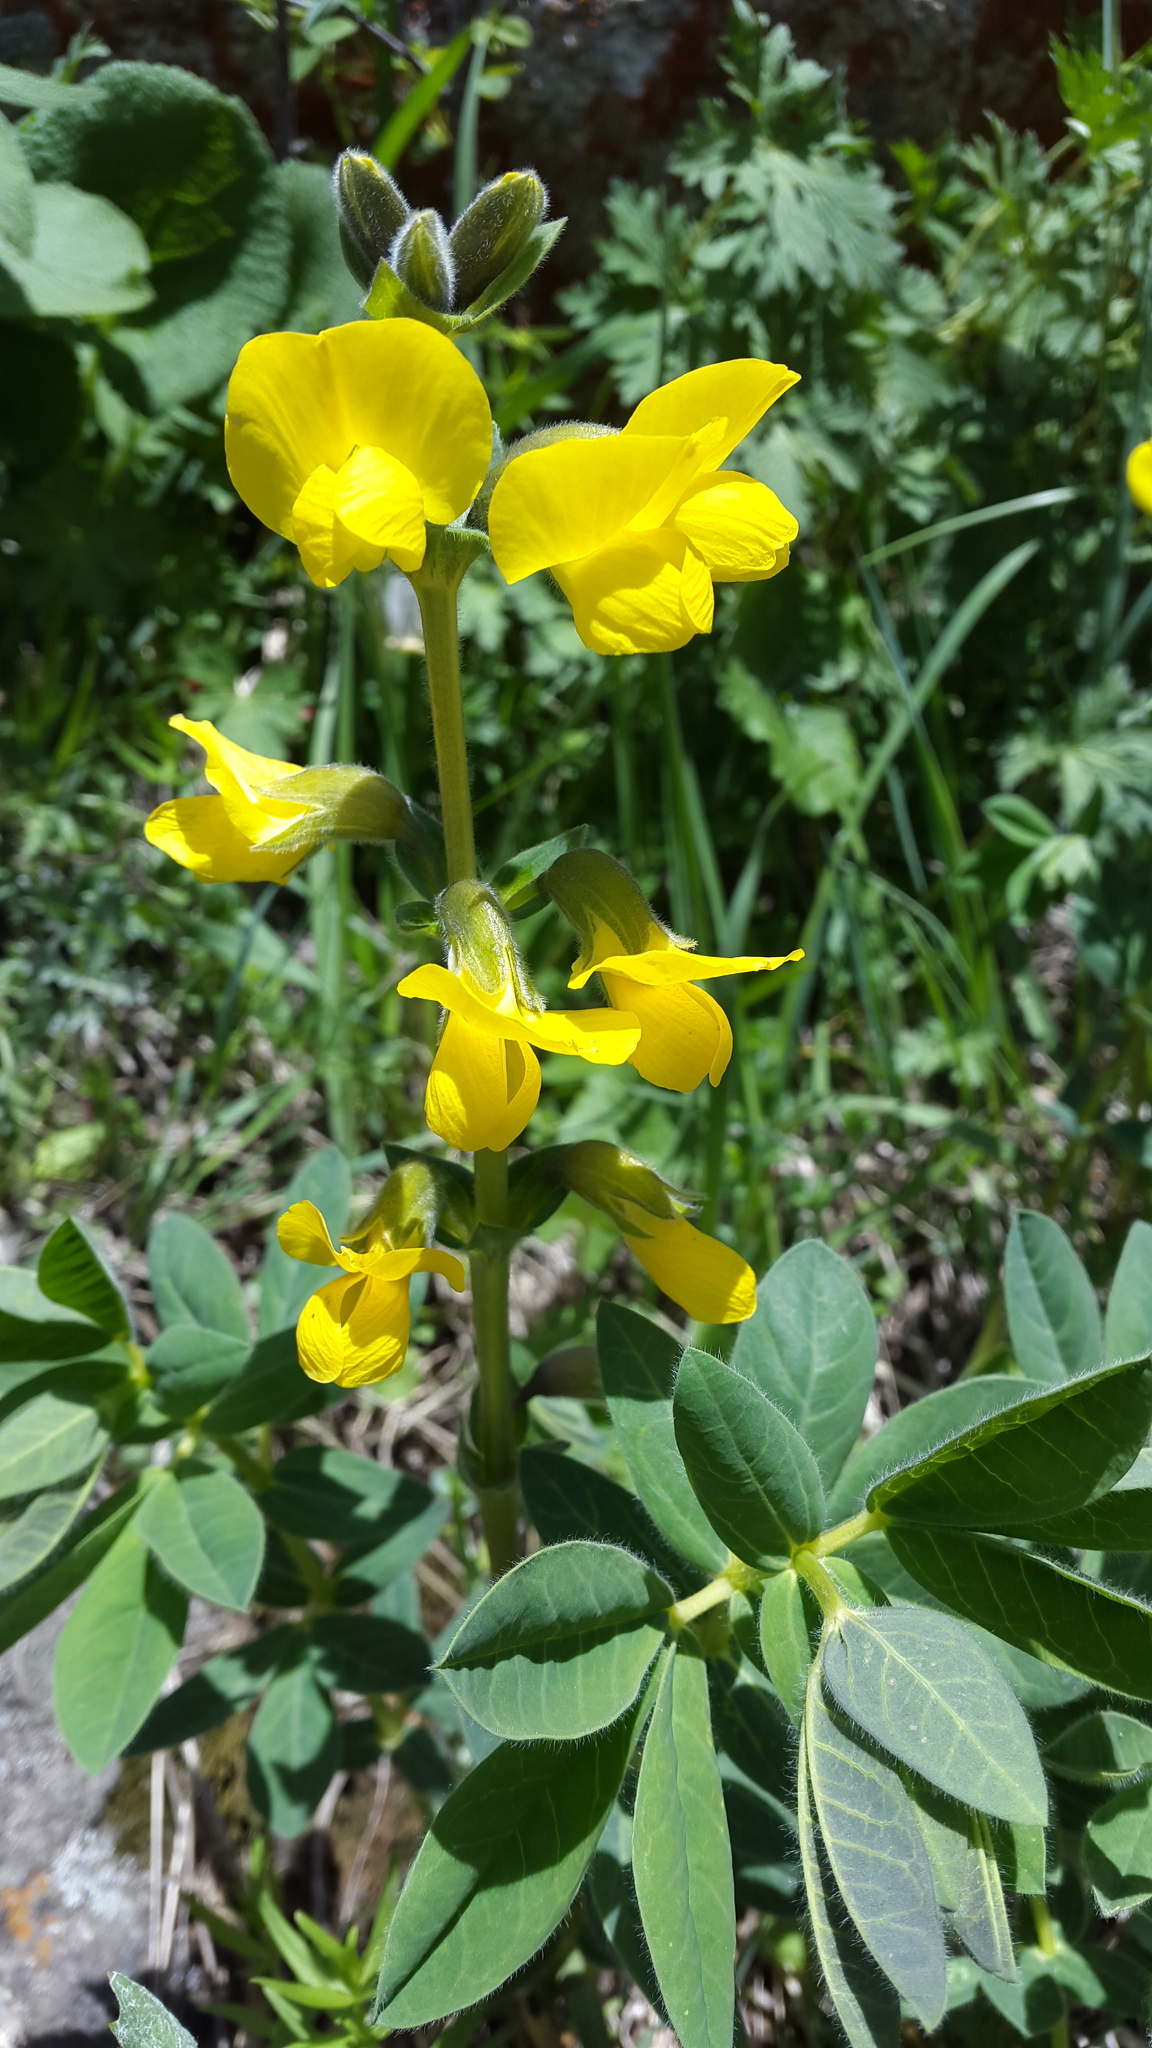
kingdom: Plantae
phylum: Tracheophyta
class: Magnoliopsida
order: Fabales
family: Fabaceae
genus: Thermopsis
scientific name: Thermopsis alpina
